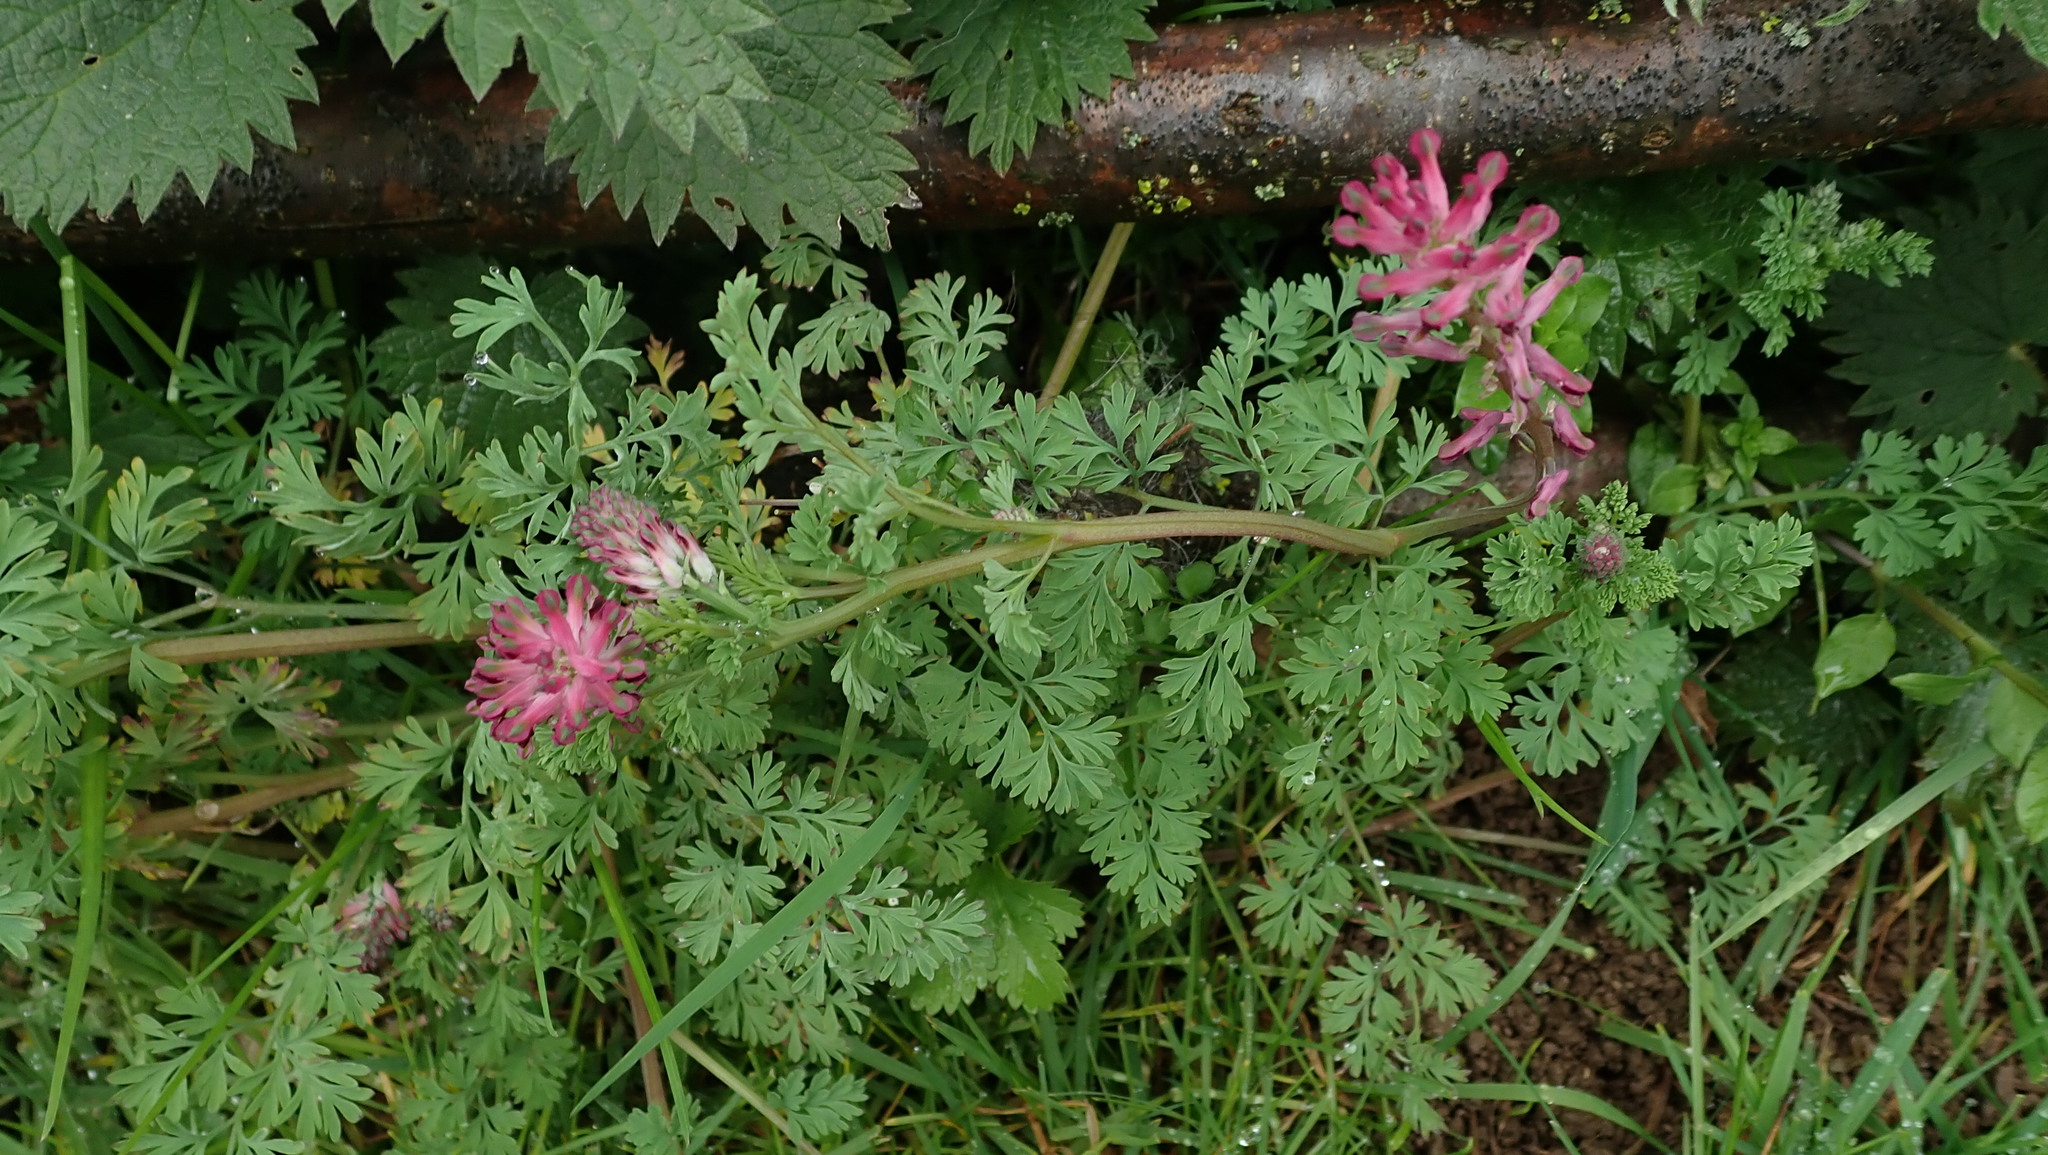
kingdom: Plantae
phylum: Tracheophyta
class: Magnoliopsida
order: Ranunculales
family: Papaveraceae
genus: Fumaria
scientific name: Fumaria officinalis
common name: Common fumitory
